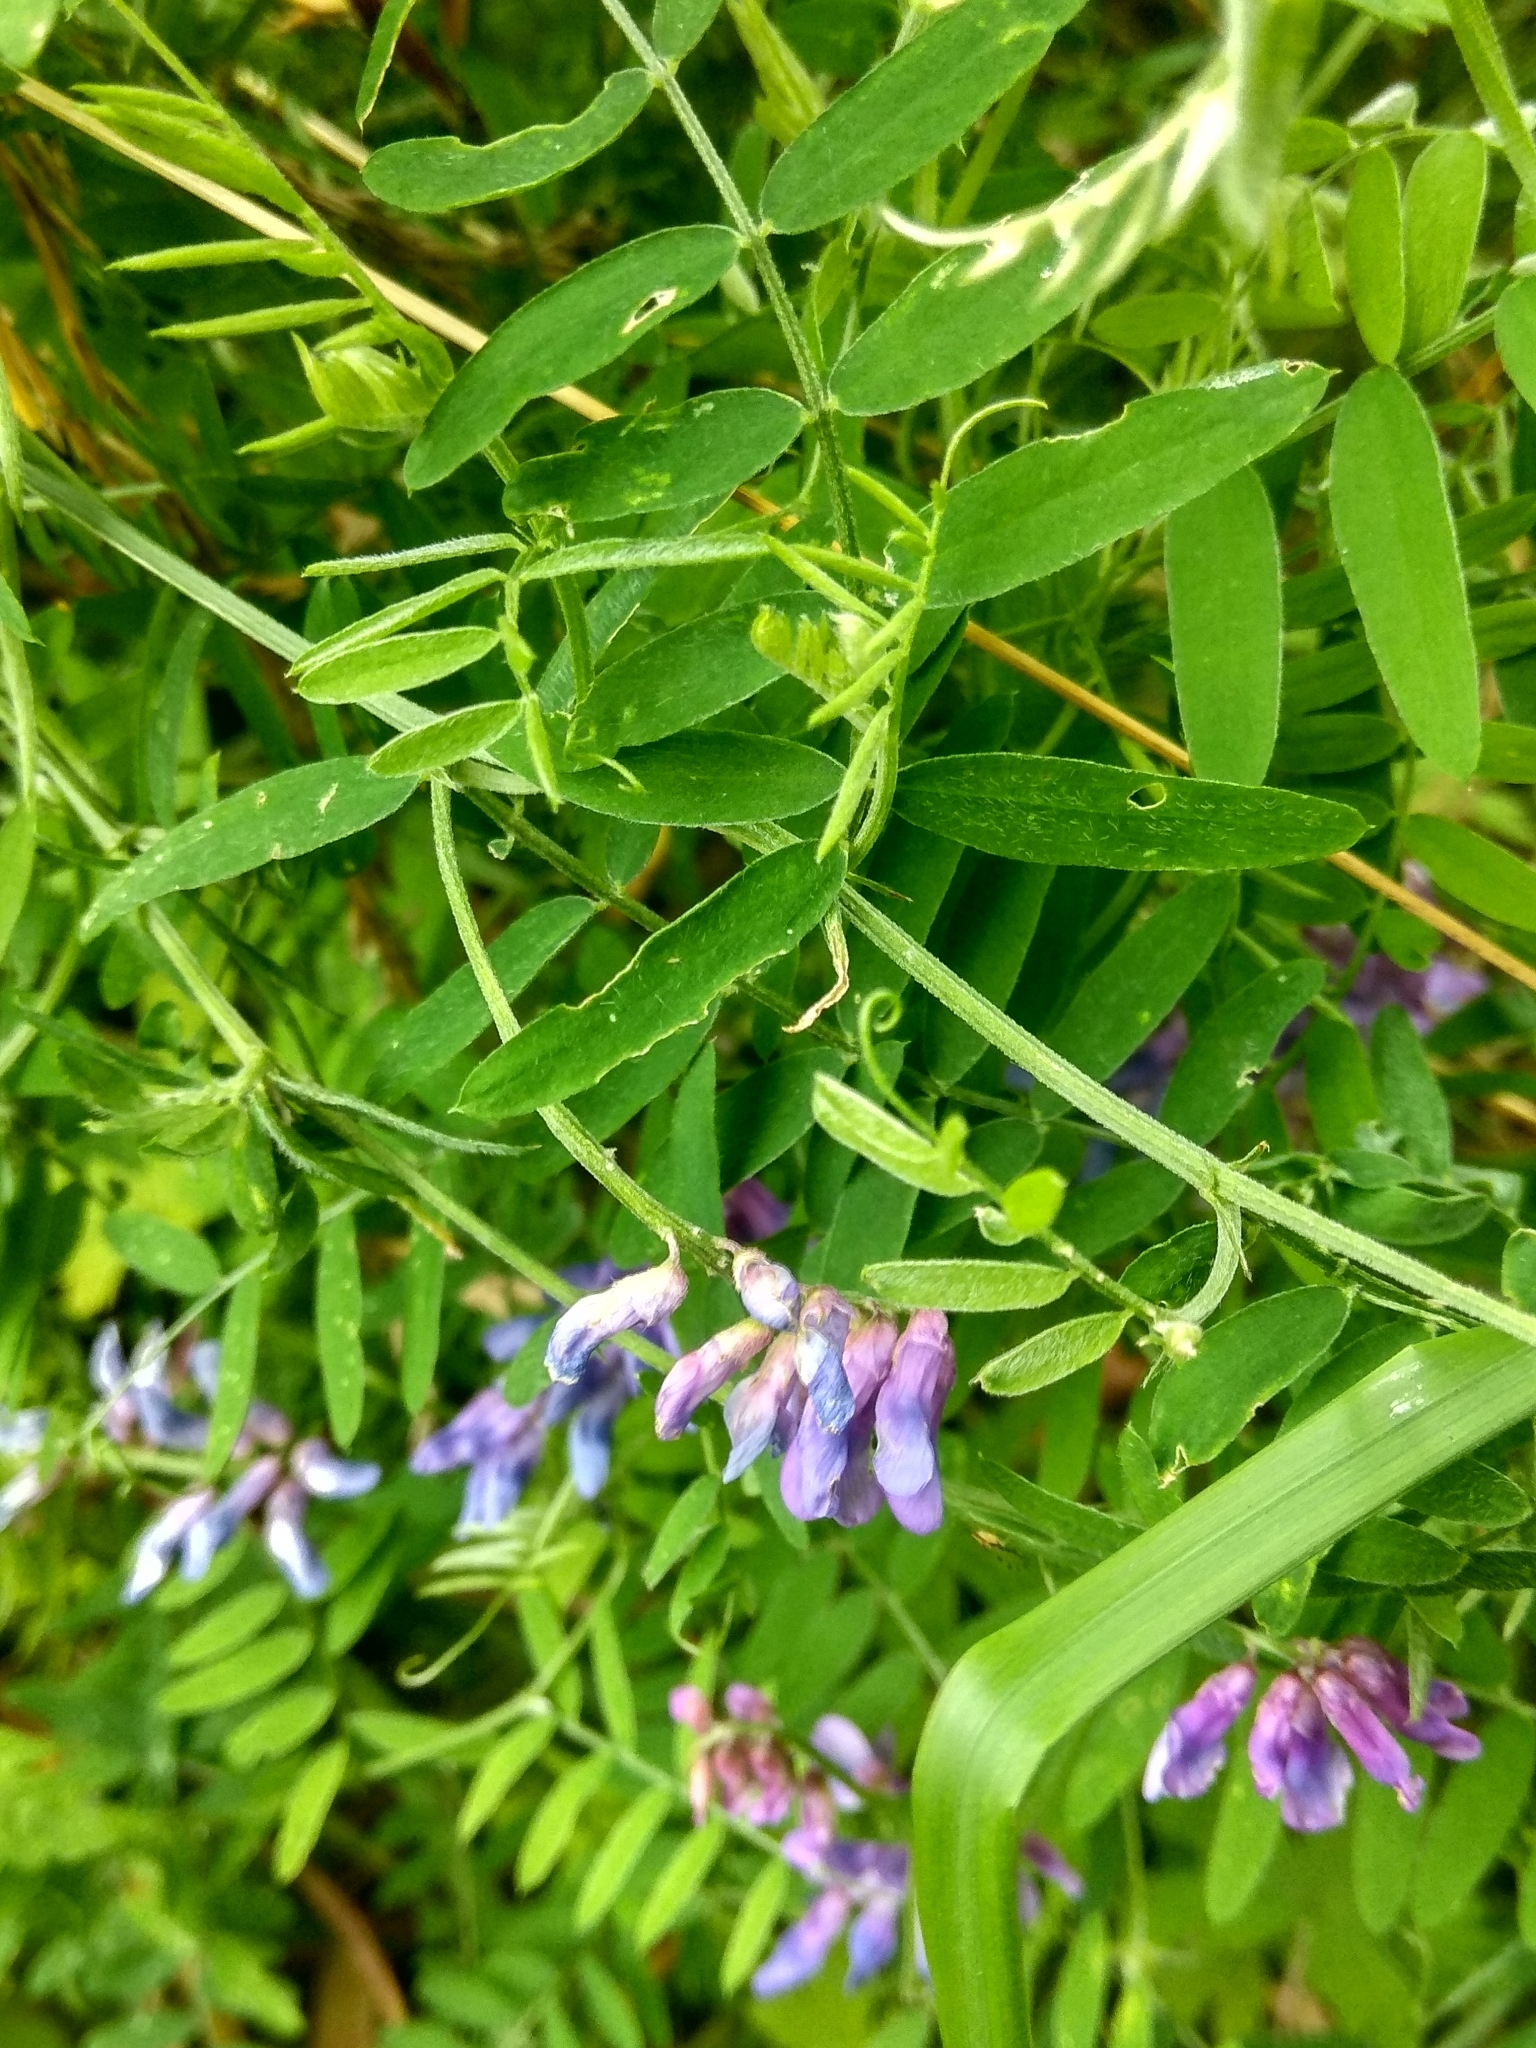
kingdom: Plantae
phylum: Tracheophyta
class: Magnoliopsida
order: Fabales
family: Fabaceae
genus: Vicia
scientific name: Vicia cracca
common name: Bird vetch
